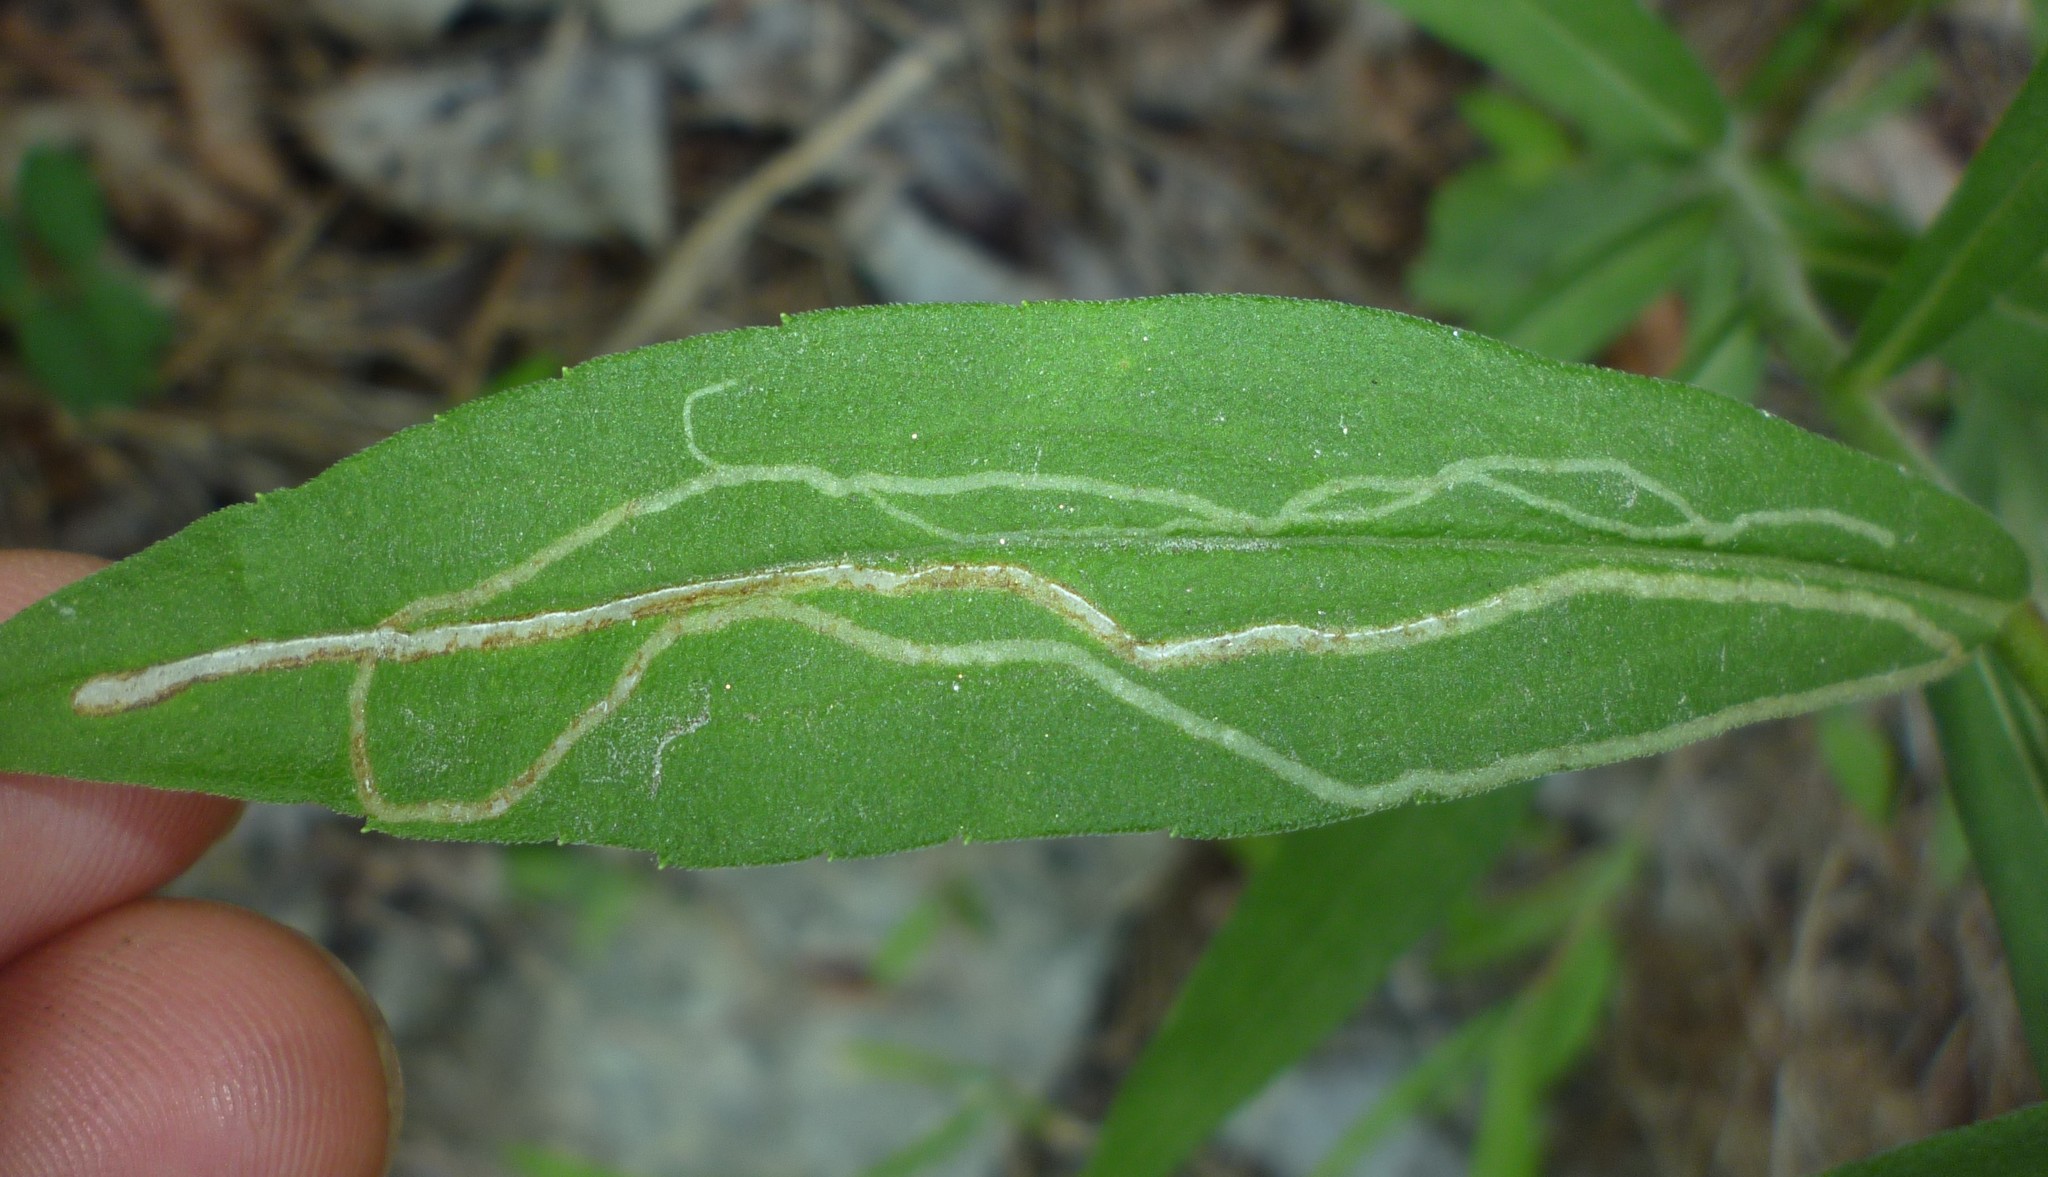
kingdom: Animalia
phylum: Arthropoda
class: Insecta
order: Diptera
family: Agromyzidae
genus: Ophiomyia
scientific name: Ophiomyia maura
